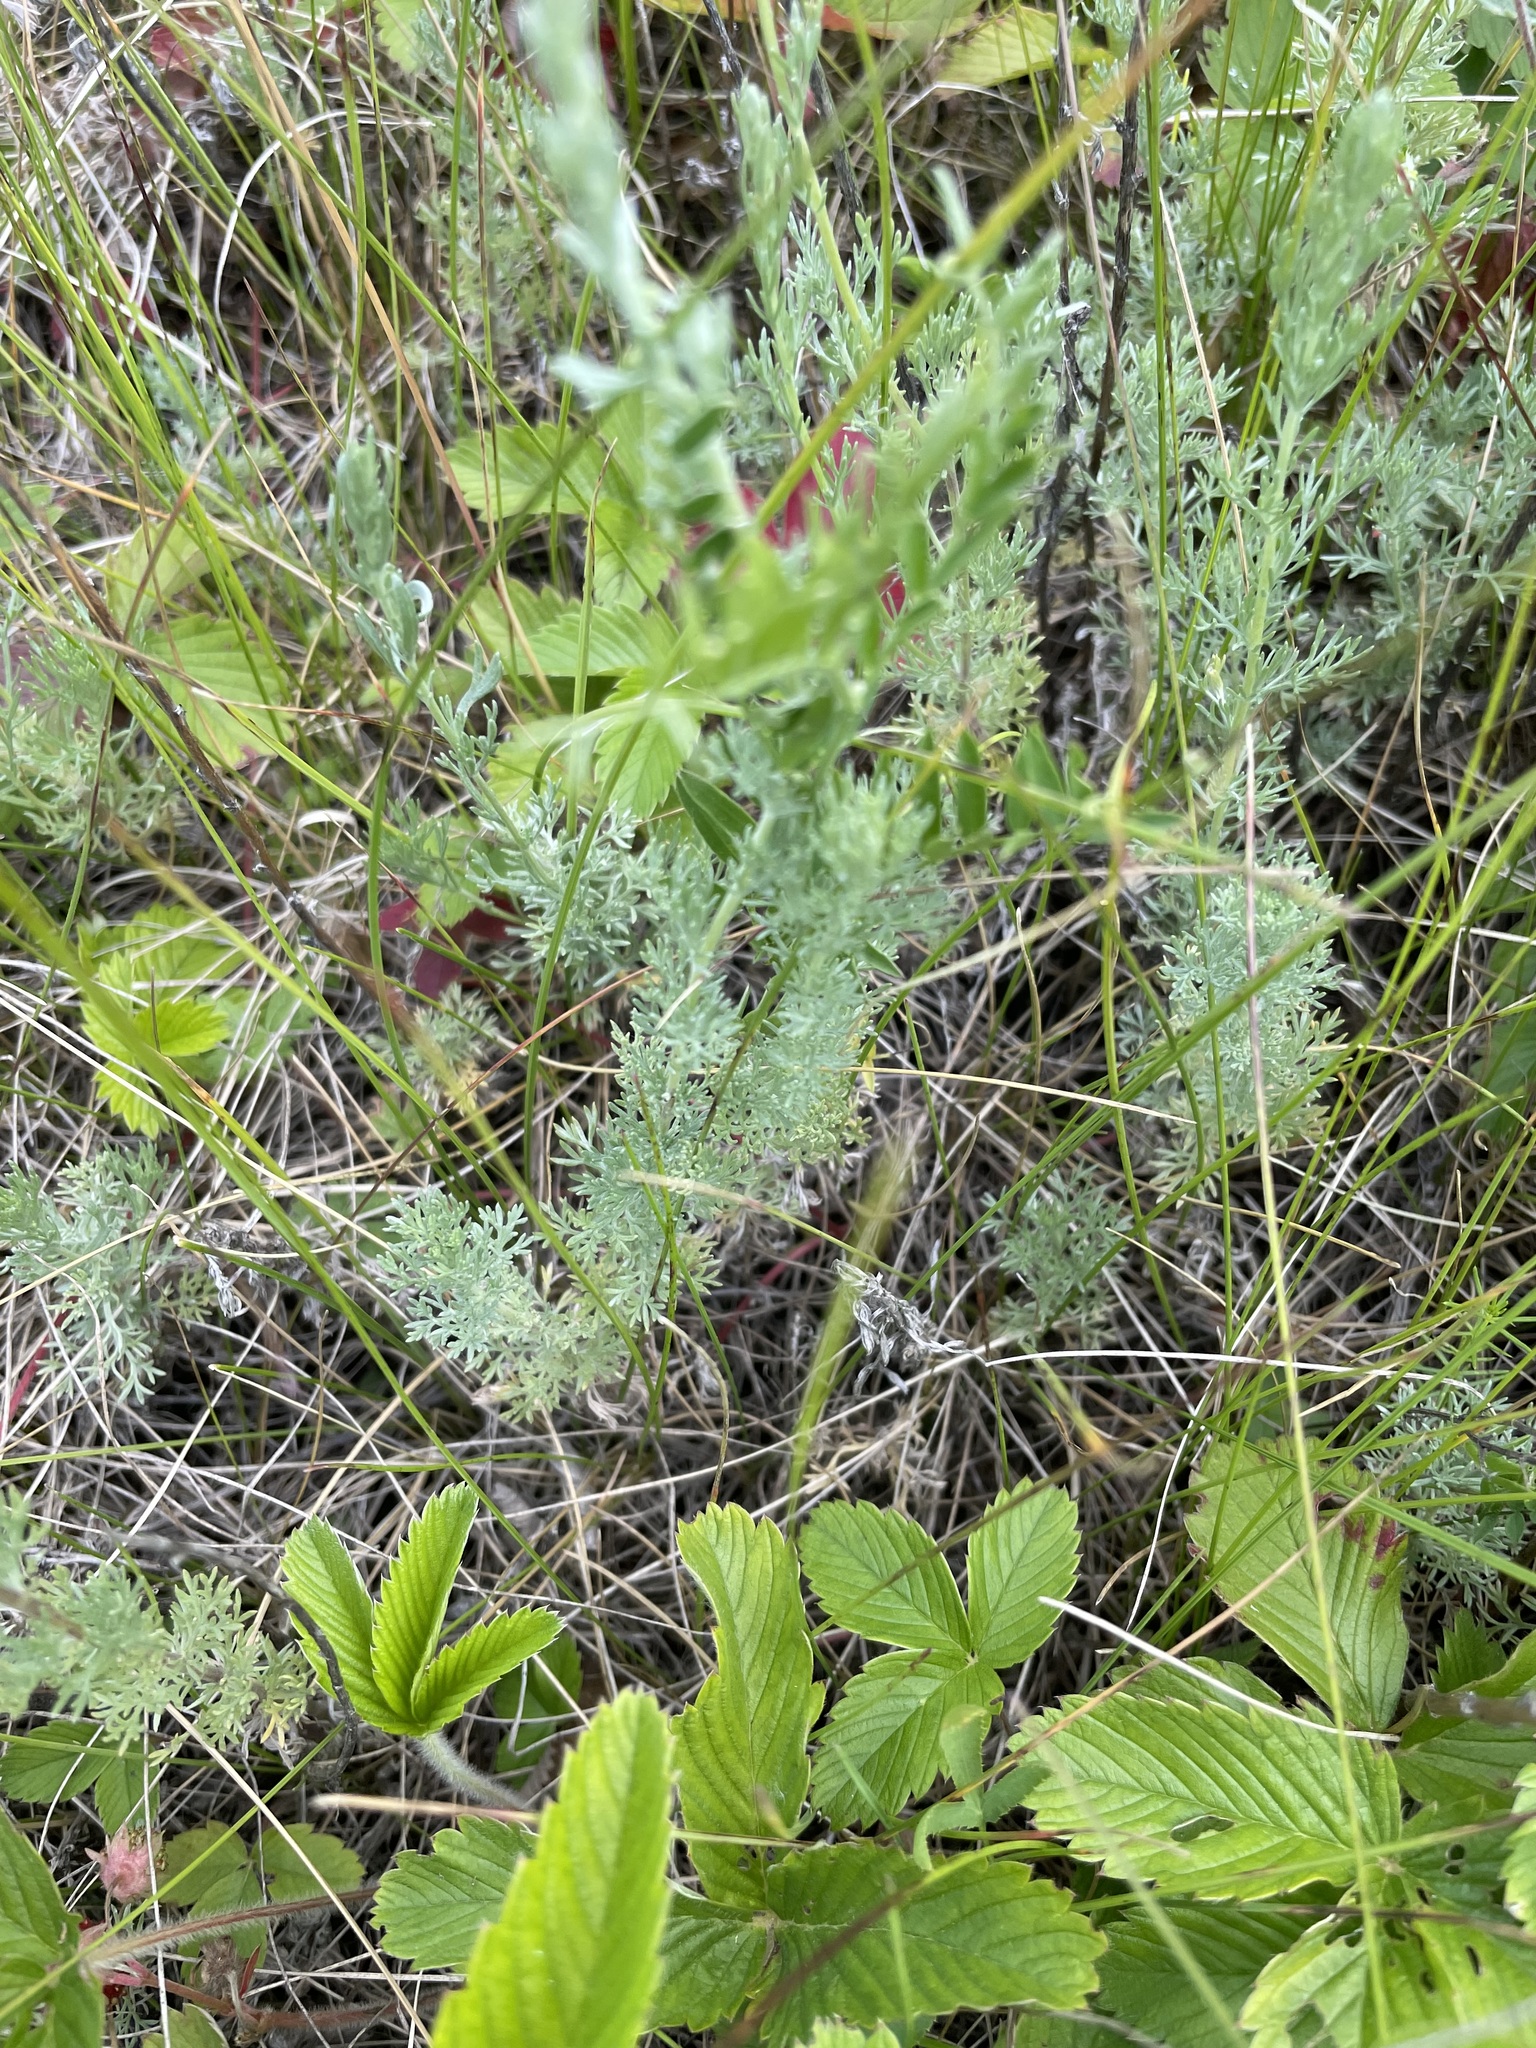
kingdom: Plantae
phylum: Tracheophyta
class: Magnoliopsida
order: Asterales
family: Asteraceae
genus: Artemisia
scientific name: Artemisia austriaca
